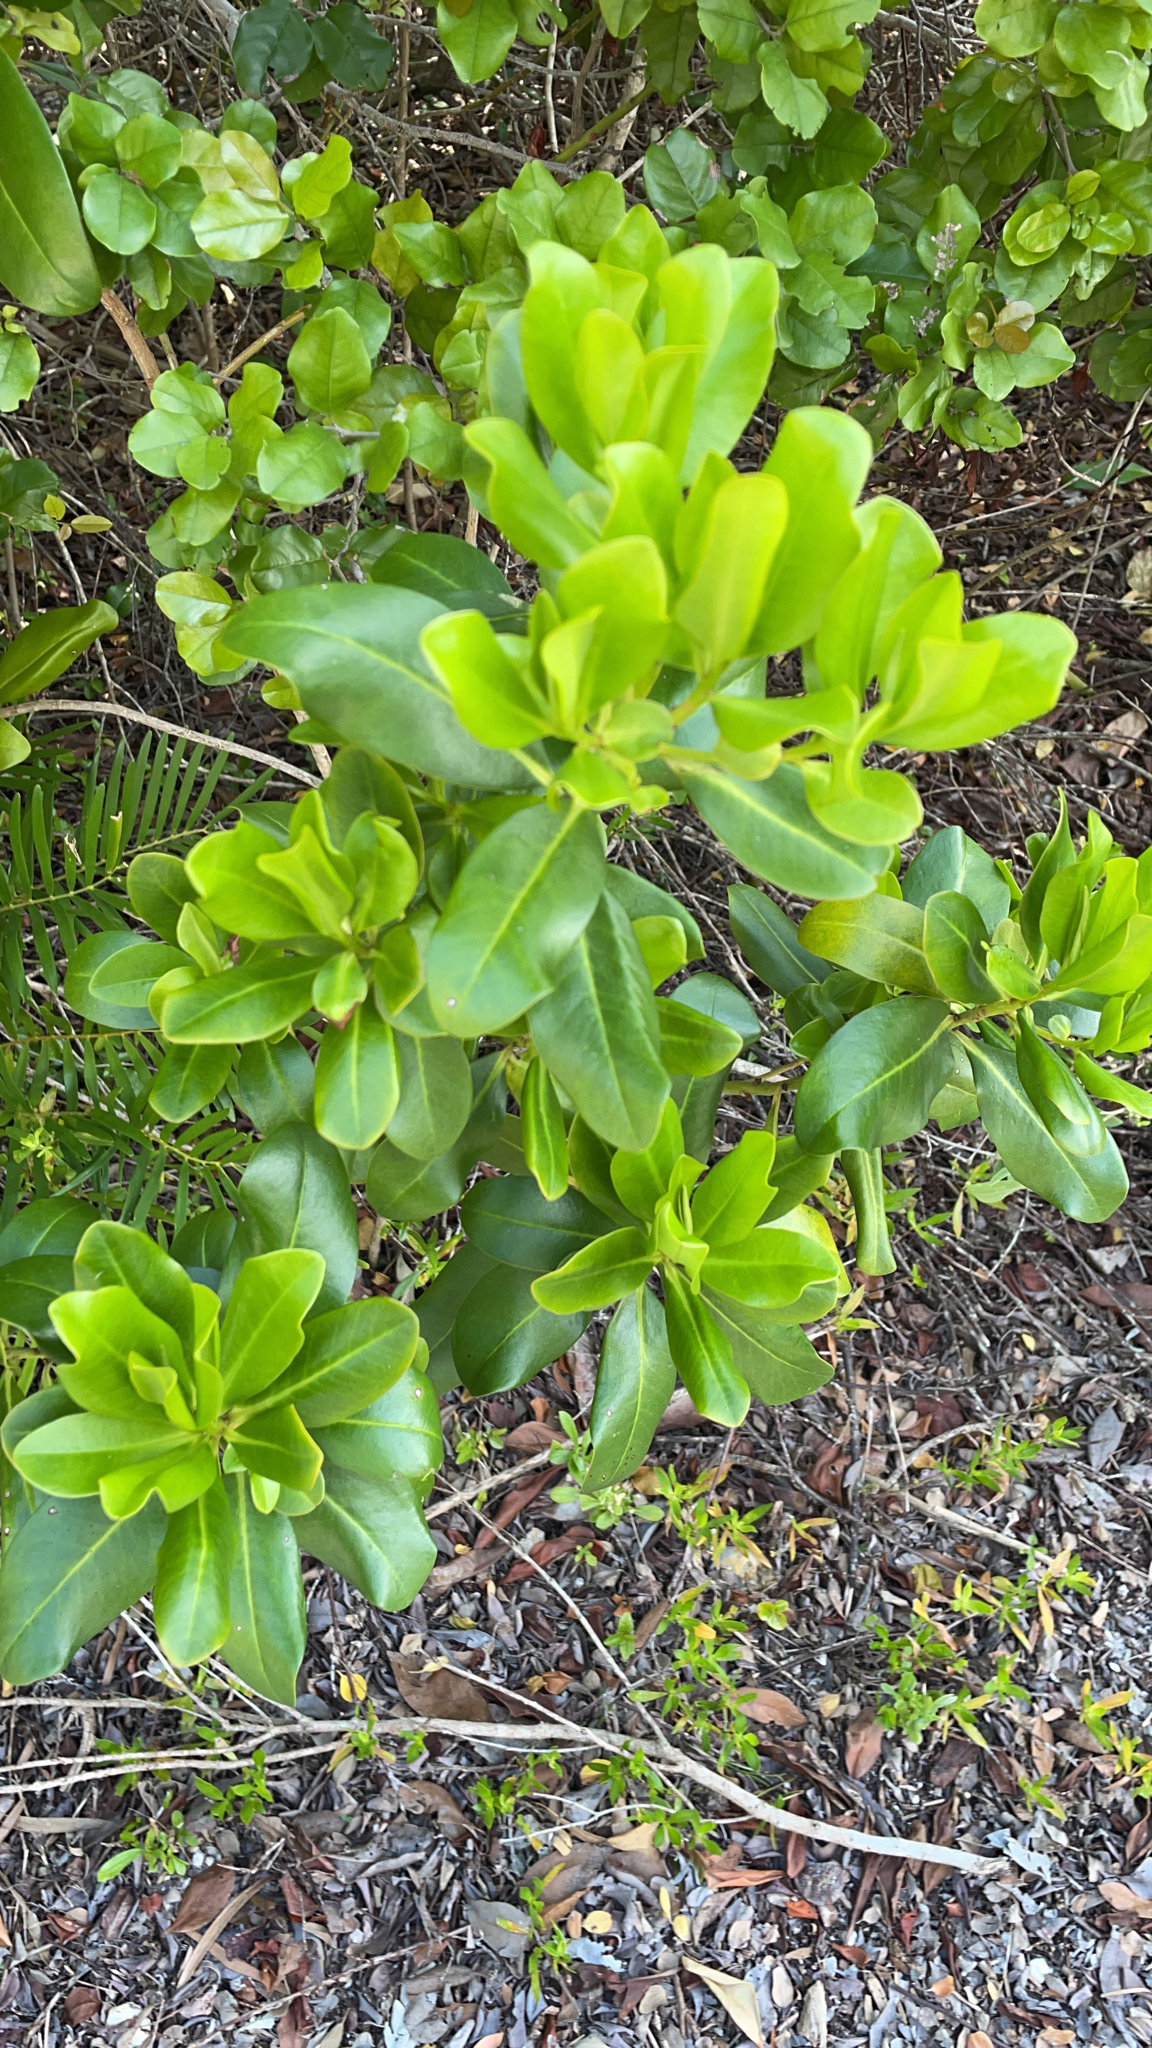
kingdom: Plantae
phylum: Tracheophyta
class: Magnoliopsida
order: Ericales
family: Primulaceae
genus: Myrsine
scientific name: Myrsine floridana
